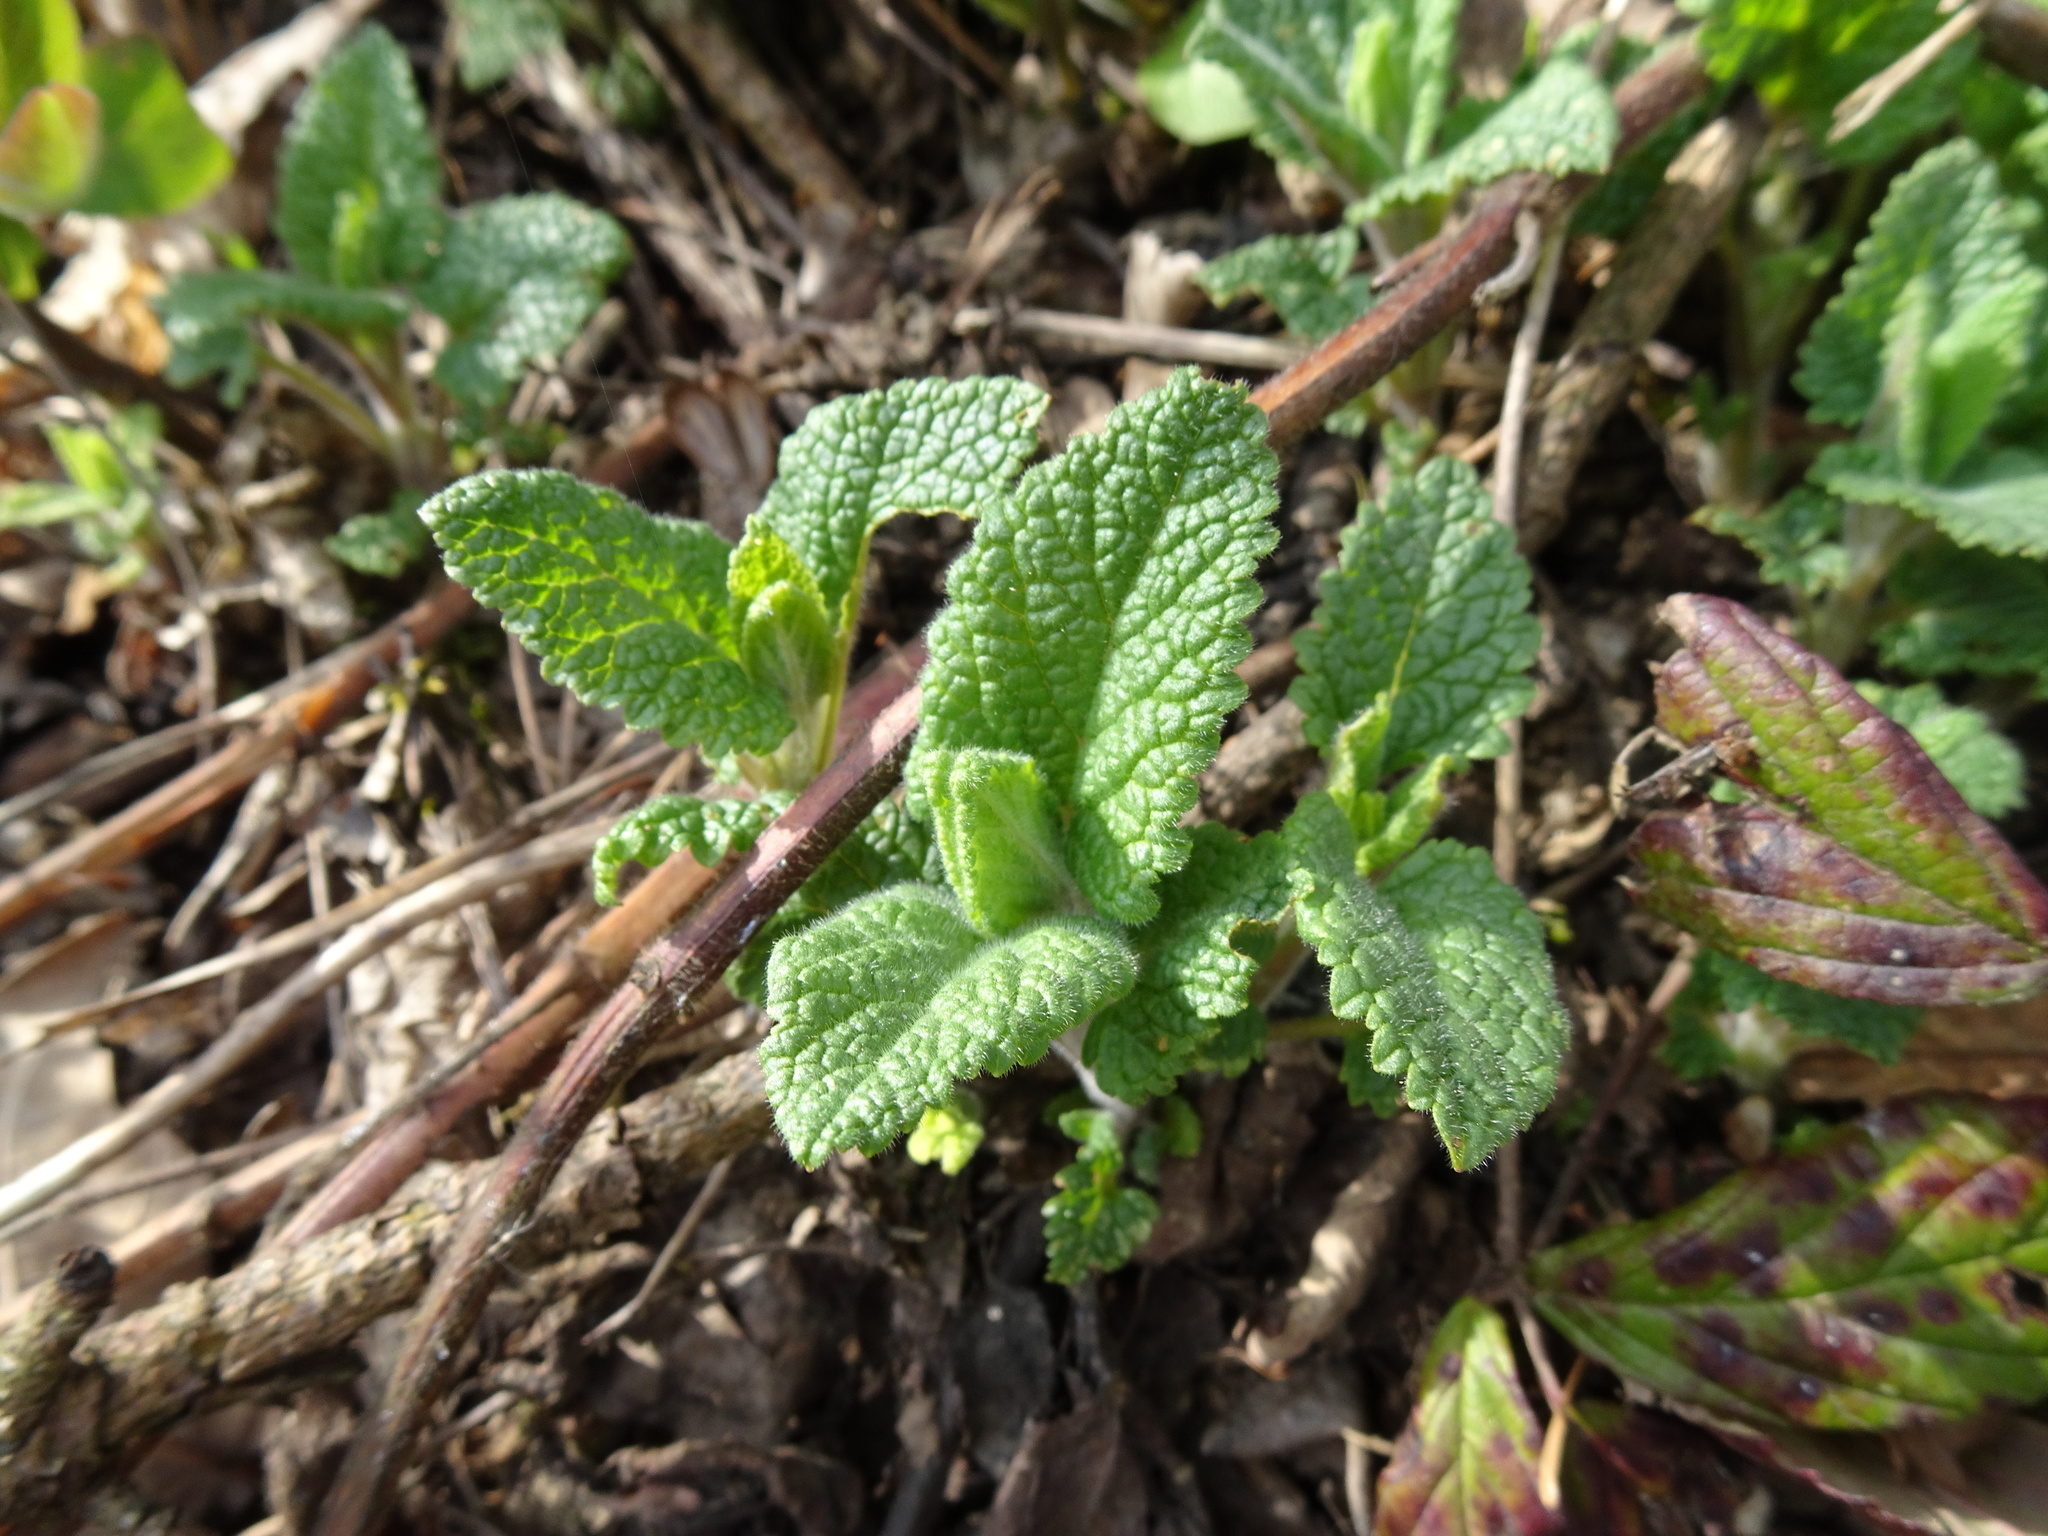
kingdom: Plantae
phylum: Tracheophyta
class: Magnoliopsida
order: Lamiales
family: Lamiaceae
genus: Teucrium
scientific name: Teucrium scorodonia
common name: Woodland germander
